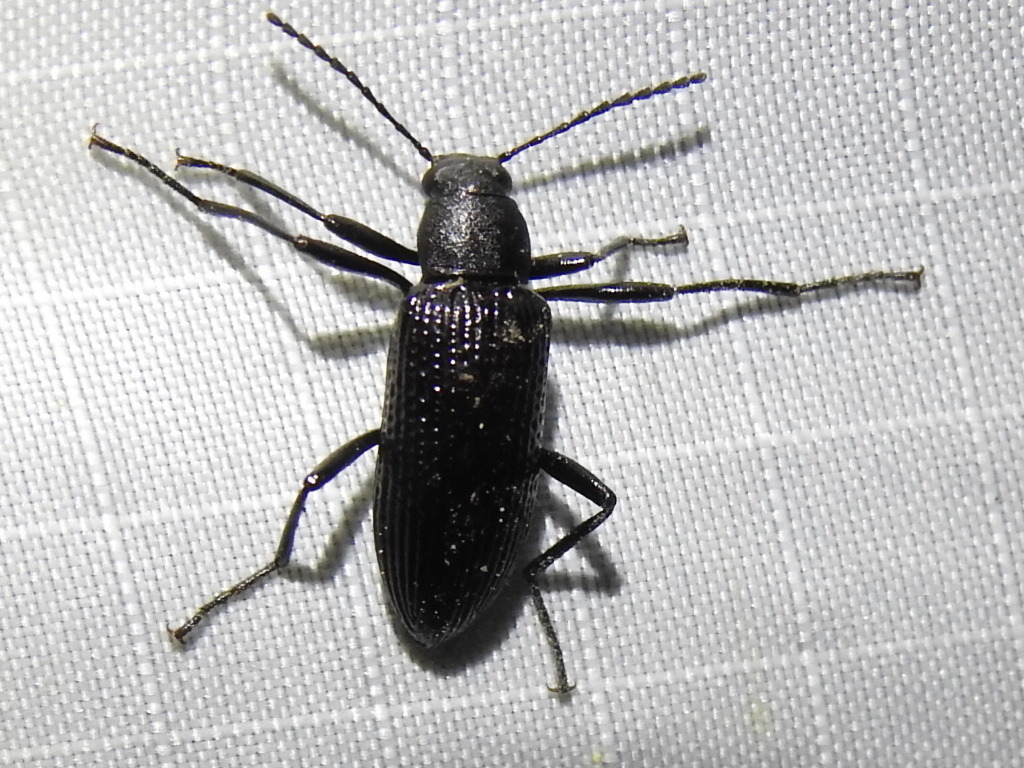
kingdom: Animalia
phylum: Arthropoda
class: Insecta
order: Coleoptera
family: Tenebrionidae
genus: Strongylium
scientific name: Strongylium hemistriatum
